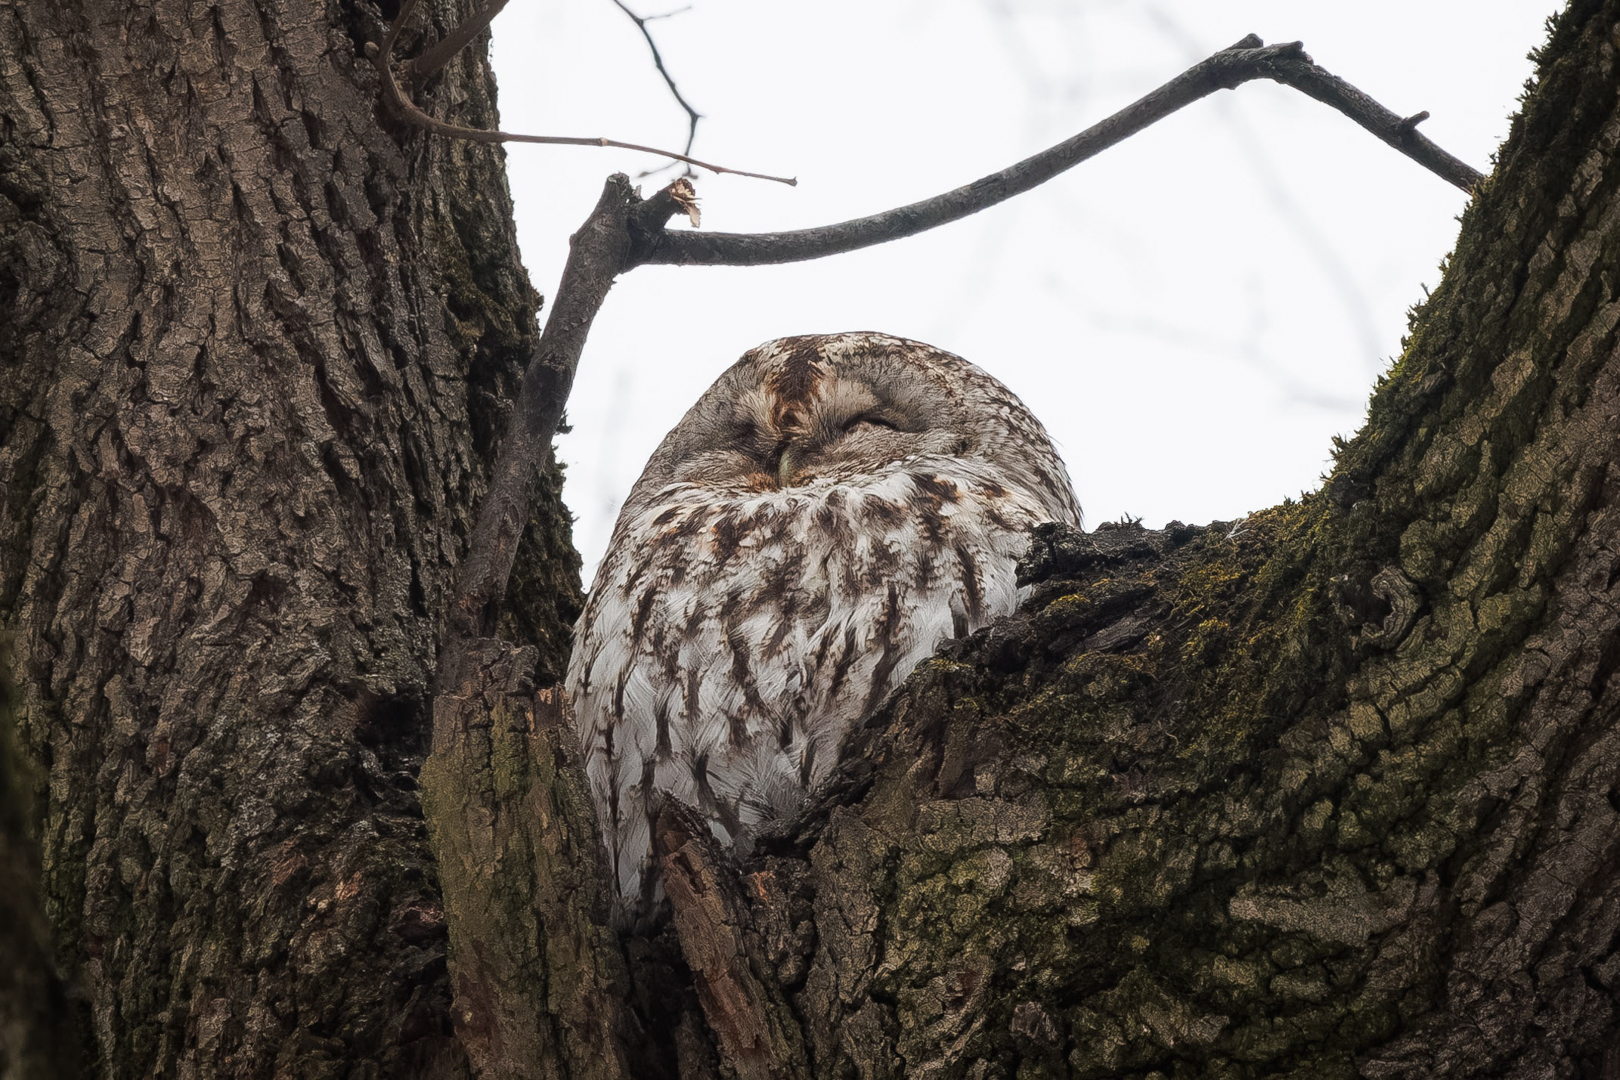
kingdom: Animalia
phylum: Chordata
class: Aves
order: Strigiformes
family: Strigidae
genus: Strix
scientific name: Strix aluco
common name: Tawny owl
